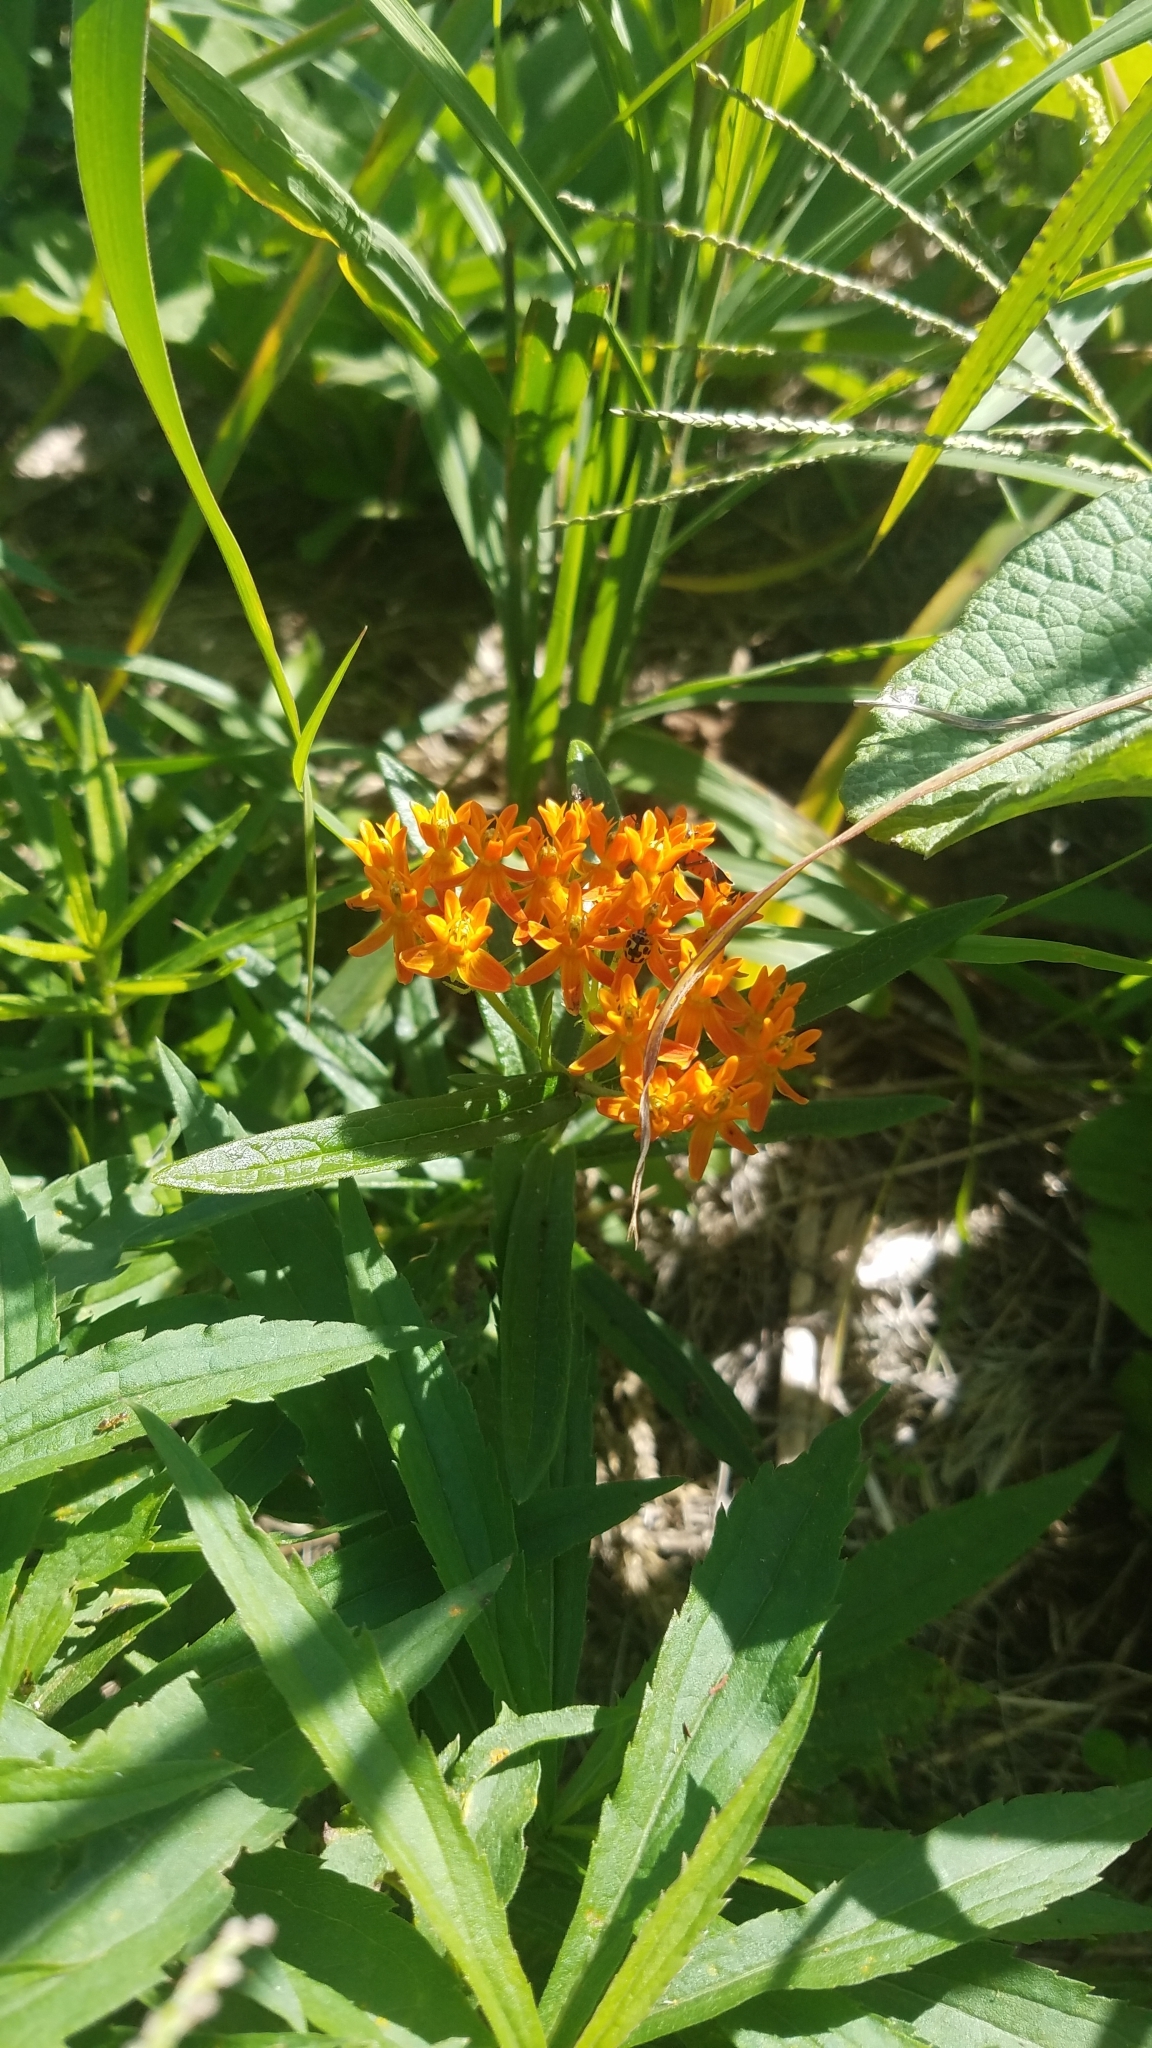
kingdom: Plantae
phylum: Tracheophyta
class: Magnoliopsida
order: Gentianales
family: Apocynaceae
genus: Asclepias
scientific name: Asclepias tuberosa
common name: Butterfly milkweed
